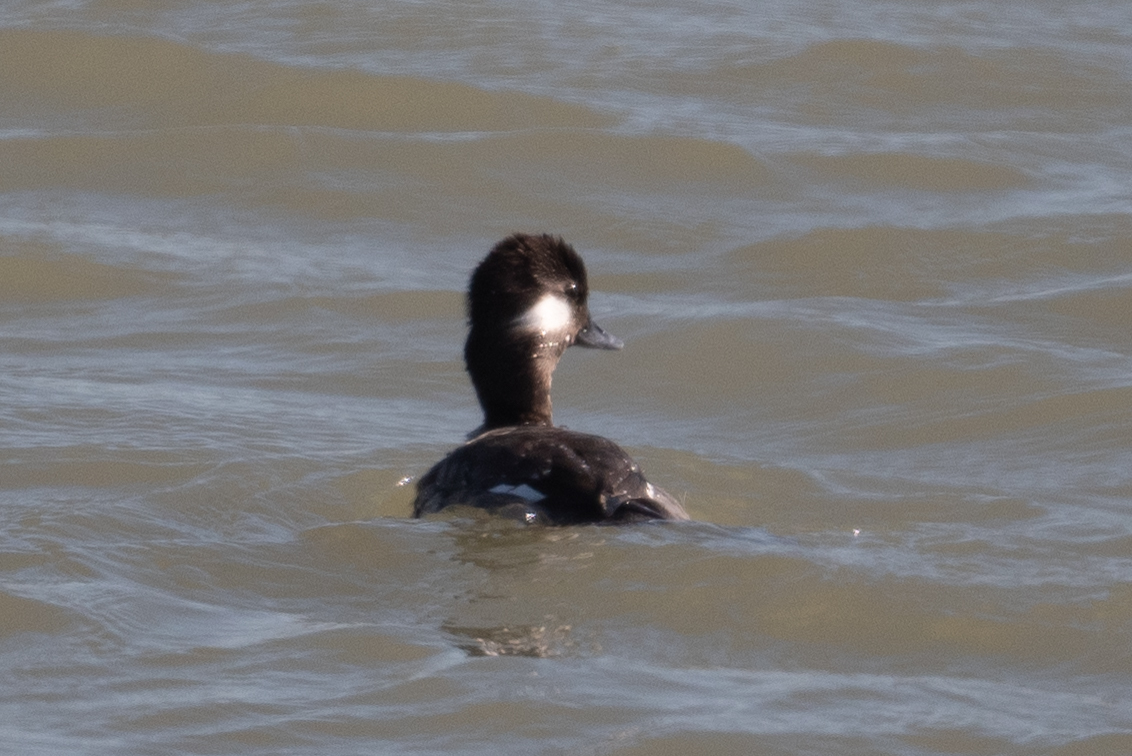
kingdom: Animalia
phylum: Chordata
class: Aves
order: Anseriformes
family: Anatidae
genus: Bucephala
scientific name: Bucephala albeola
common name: Bufflehead
